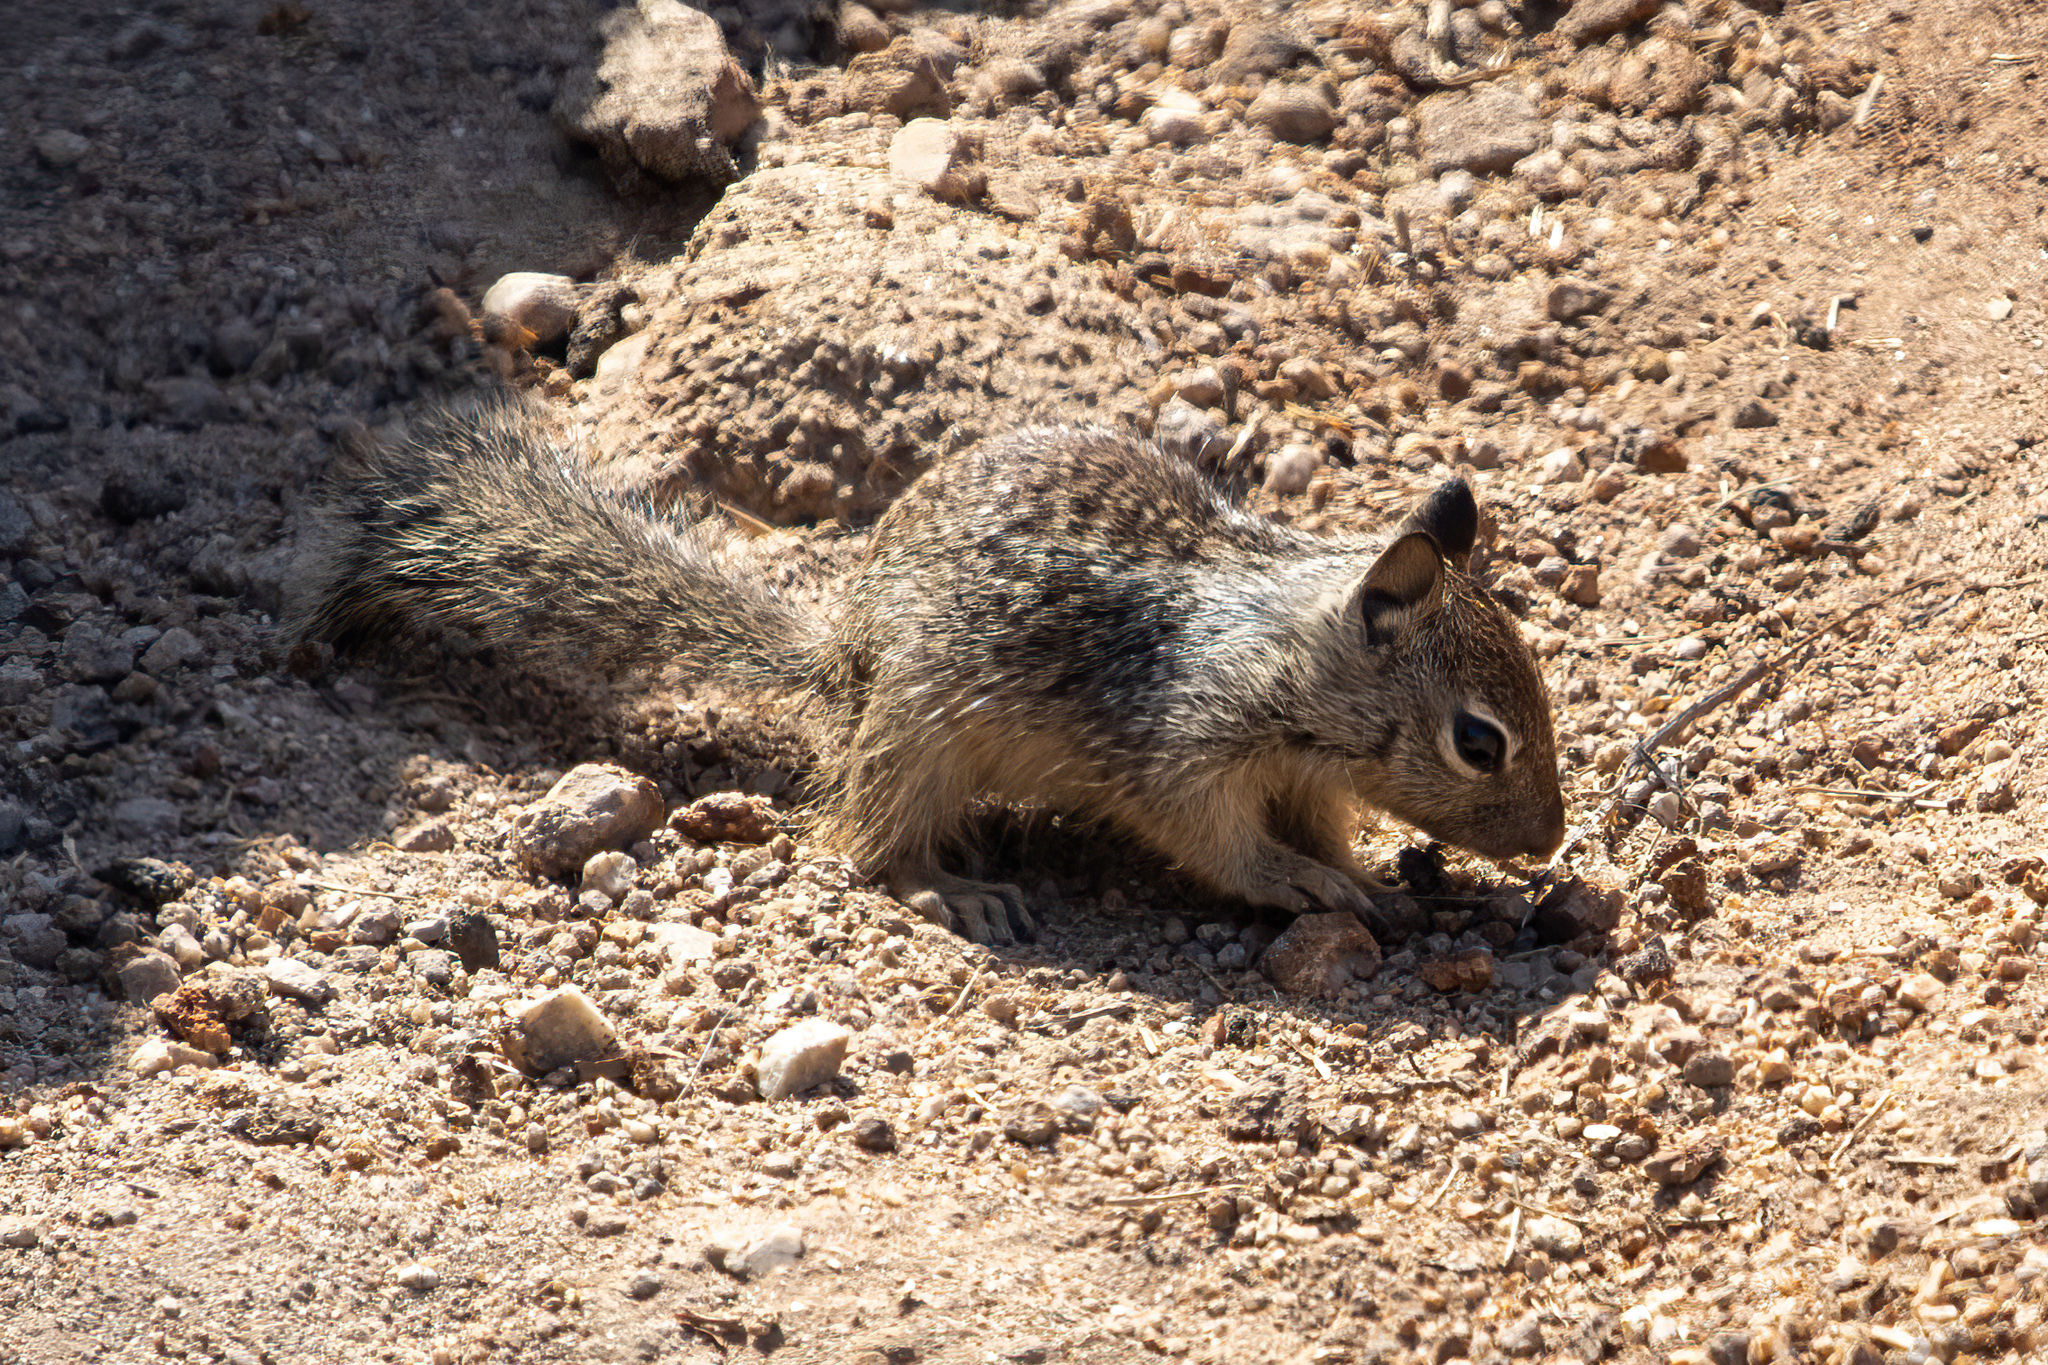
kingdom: Animalia
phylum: Chordata
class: Mammalia
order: Rodentia
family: Sciuridae
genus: Otospermophilus
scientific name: Otospermophilus beecheyi
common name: California ground squirrel
